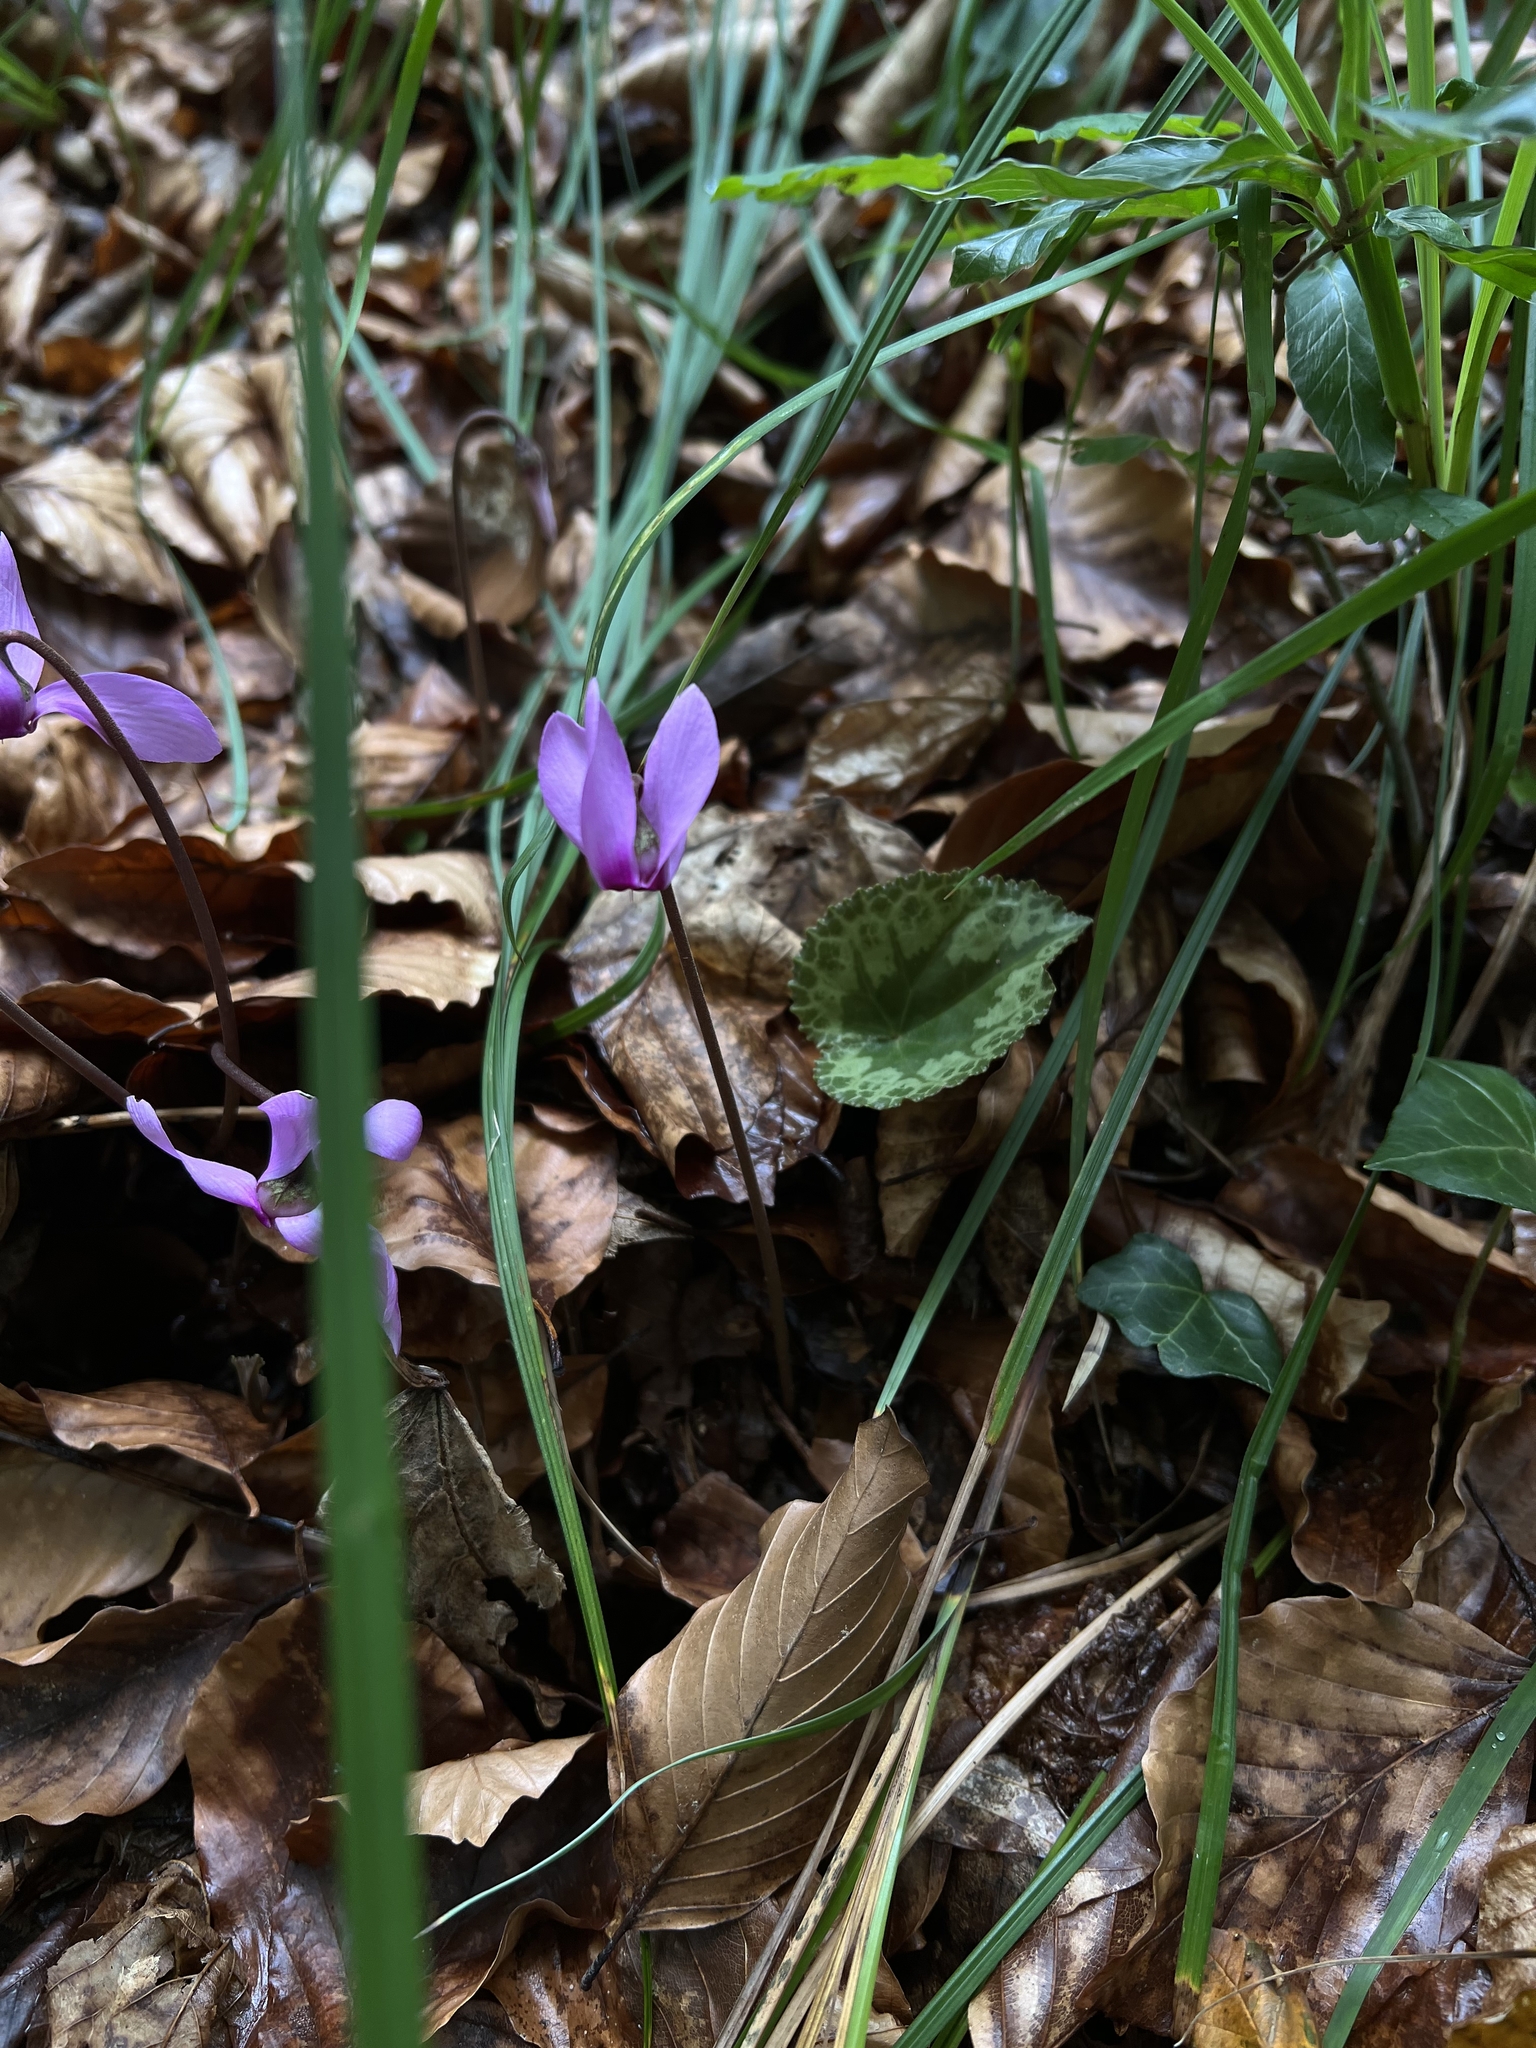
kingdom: Plantae
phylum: Tracheophyta
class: Magnoliopsida
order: Ericales
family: Primulaceae
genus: Cyclamen
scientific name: Cyclamen purpurascens
